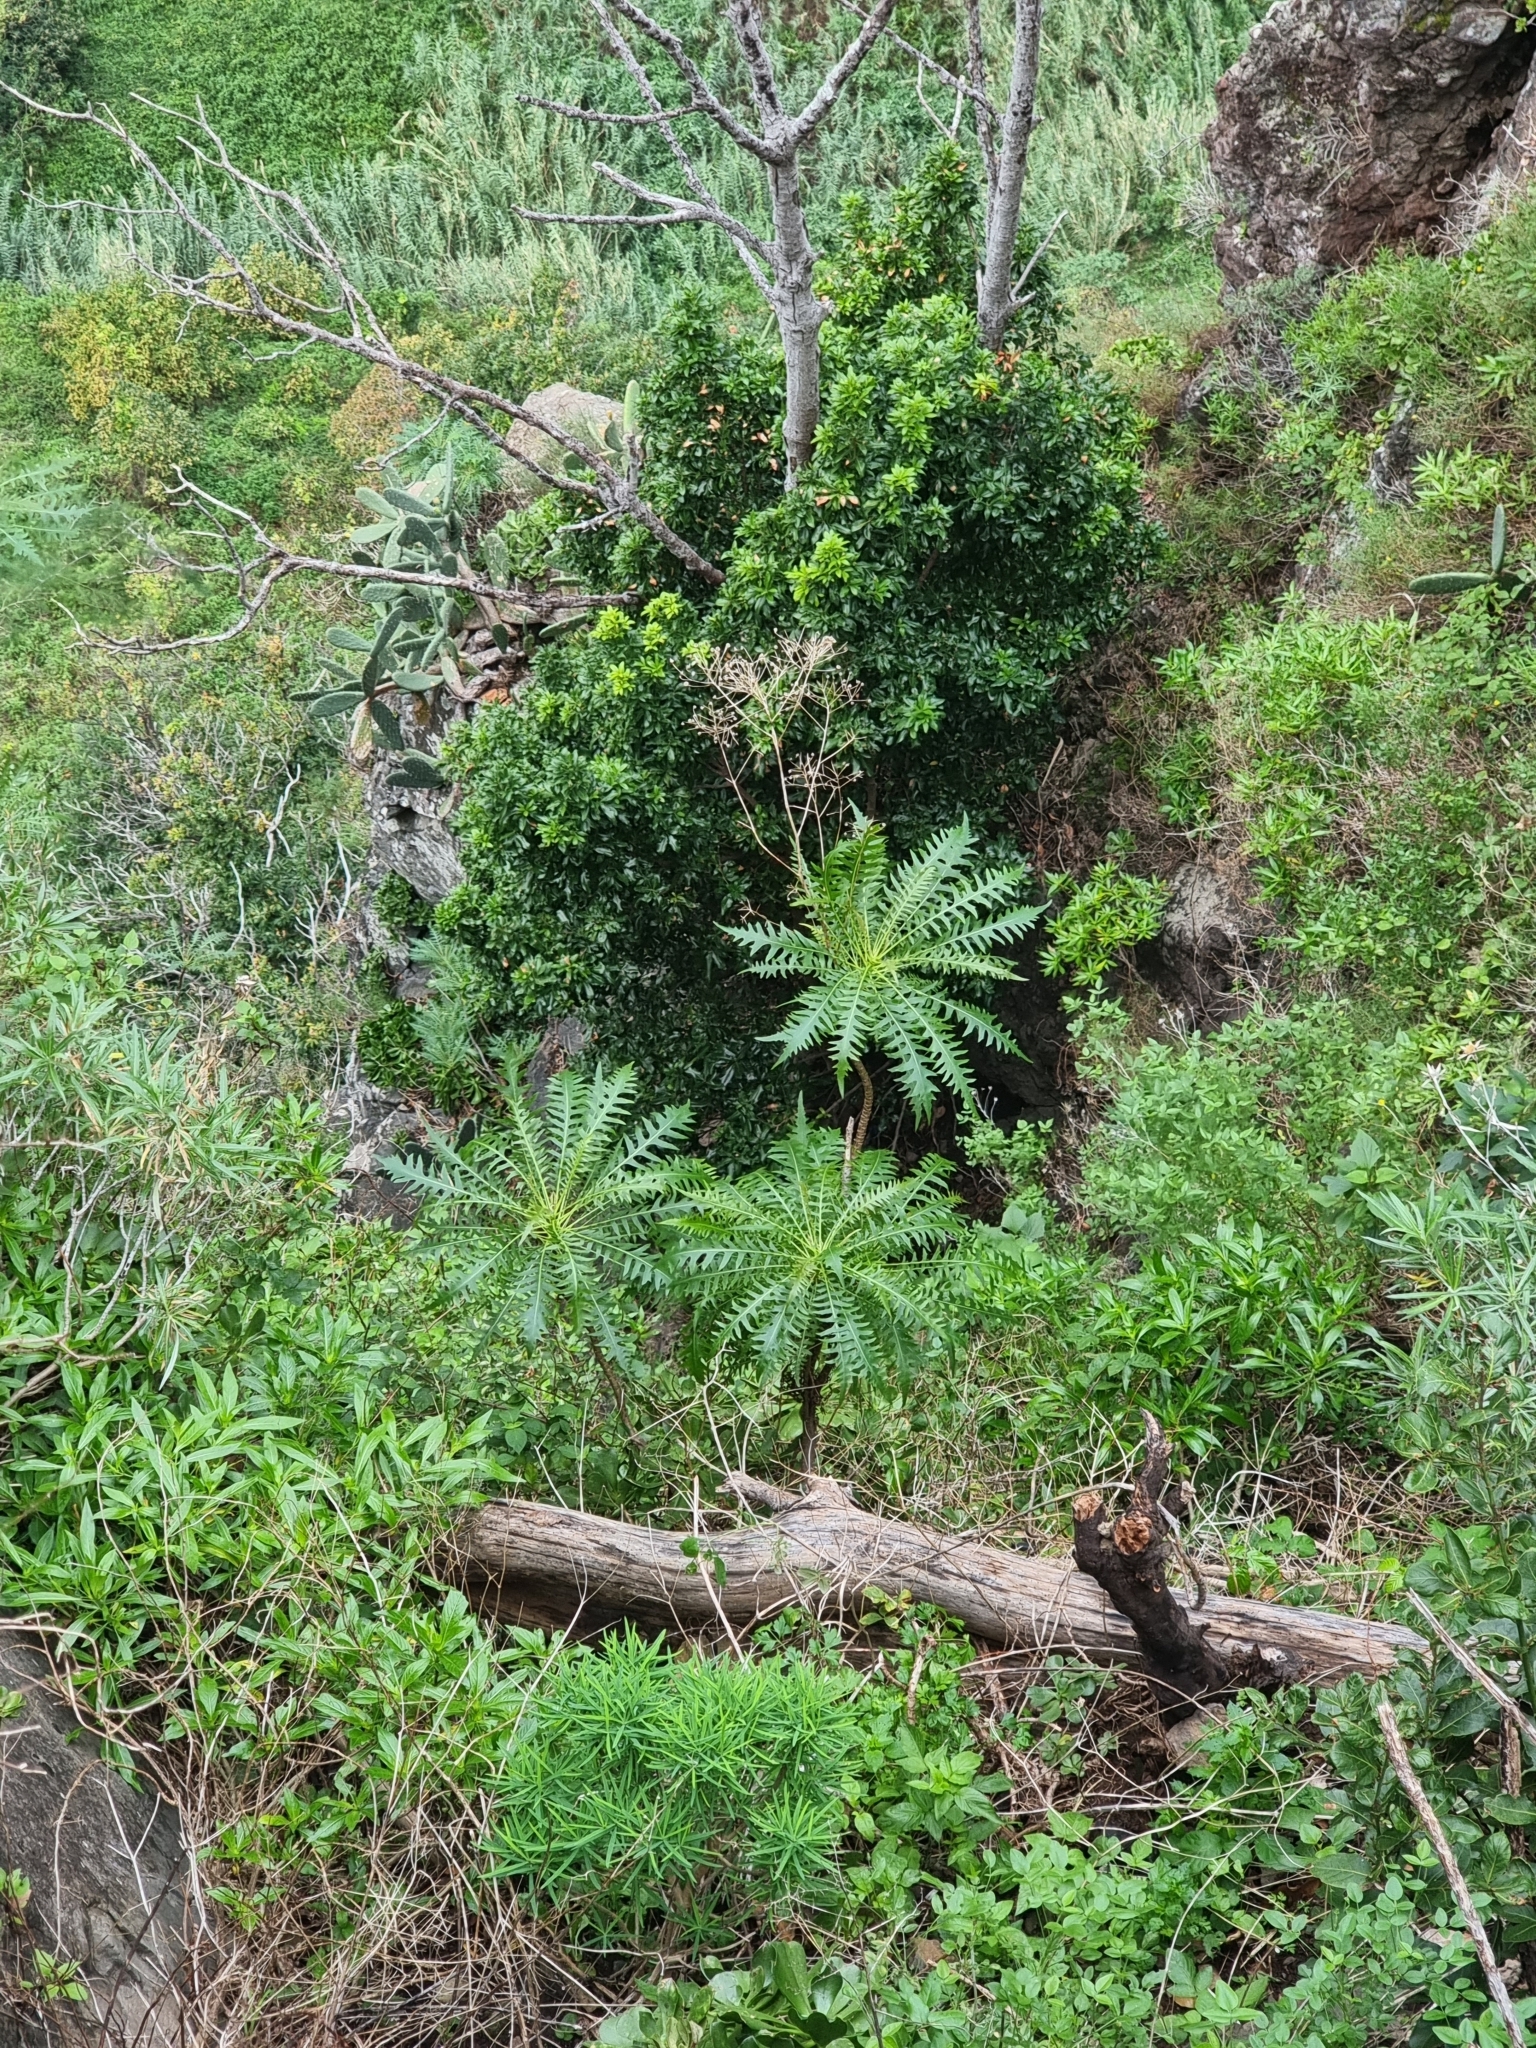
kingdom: Plantae
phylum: Tracheophyta
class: Magnoliopsida
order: Asterales
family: Asteraceae
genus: Sonchus
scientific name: Sonchus pinnatus
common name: Wing-leaved sow-thistle
